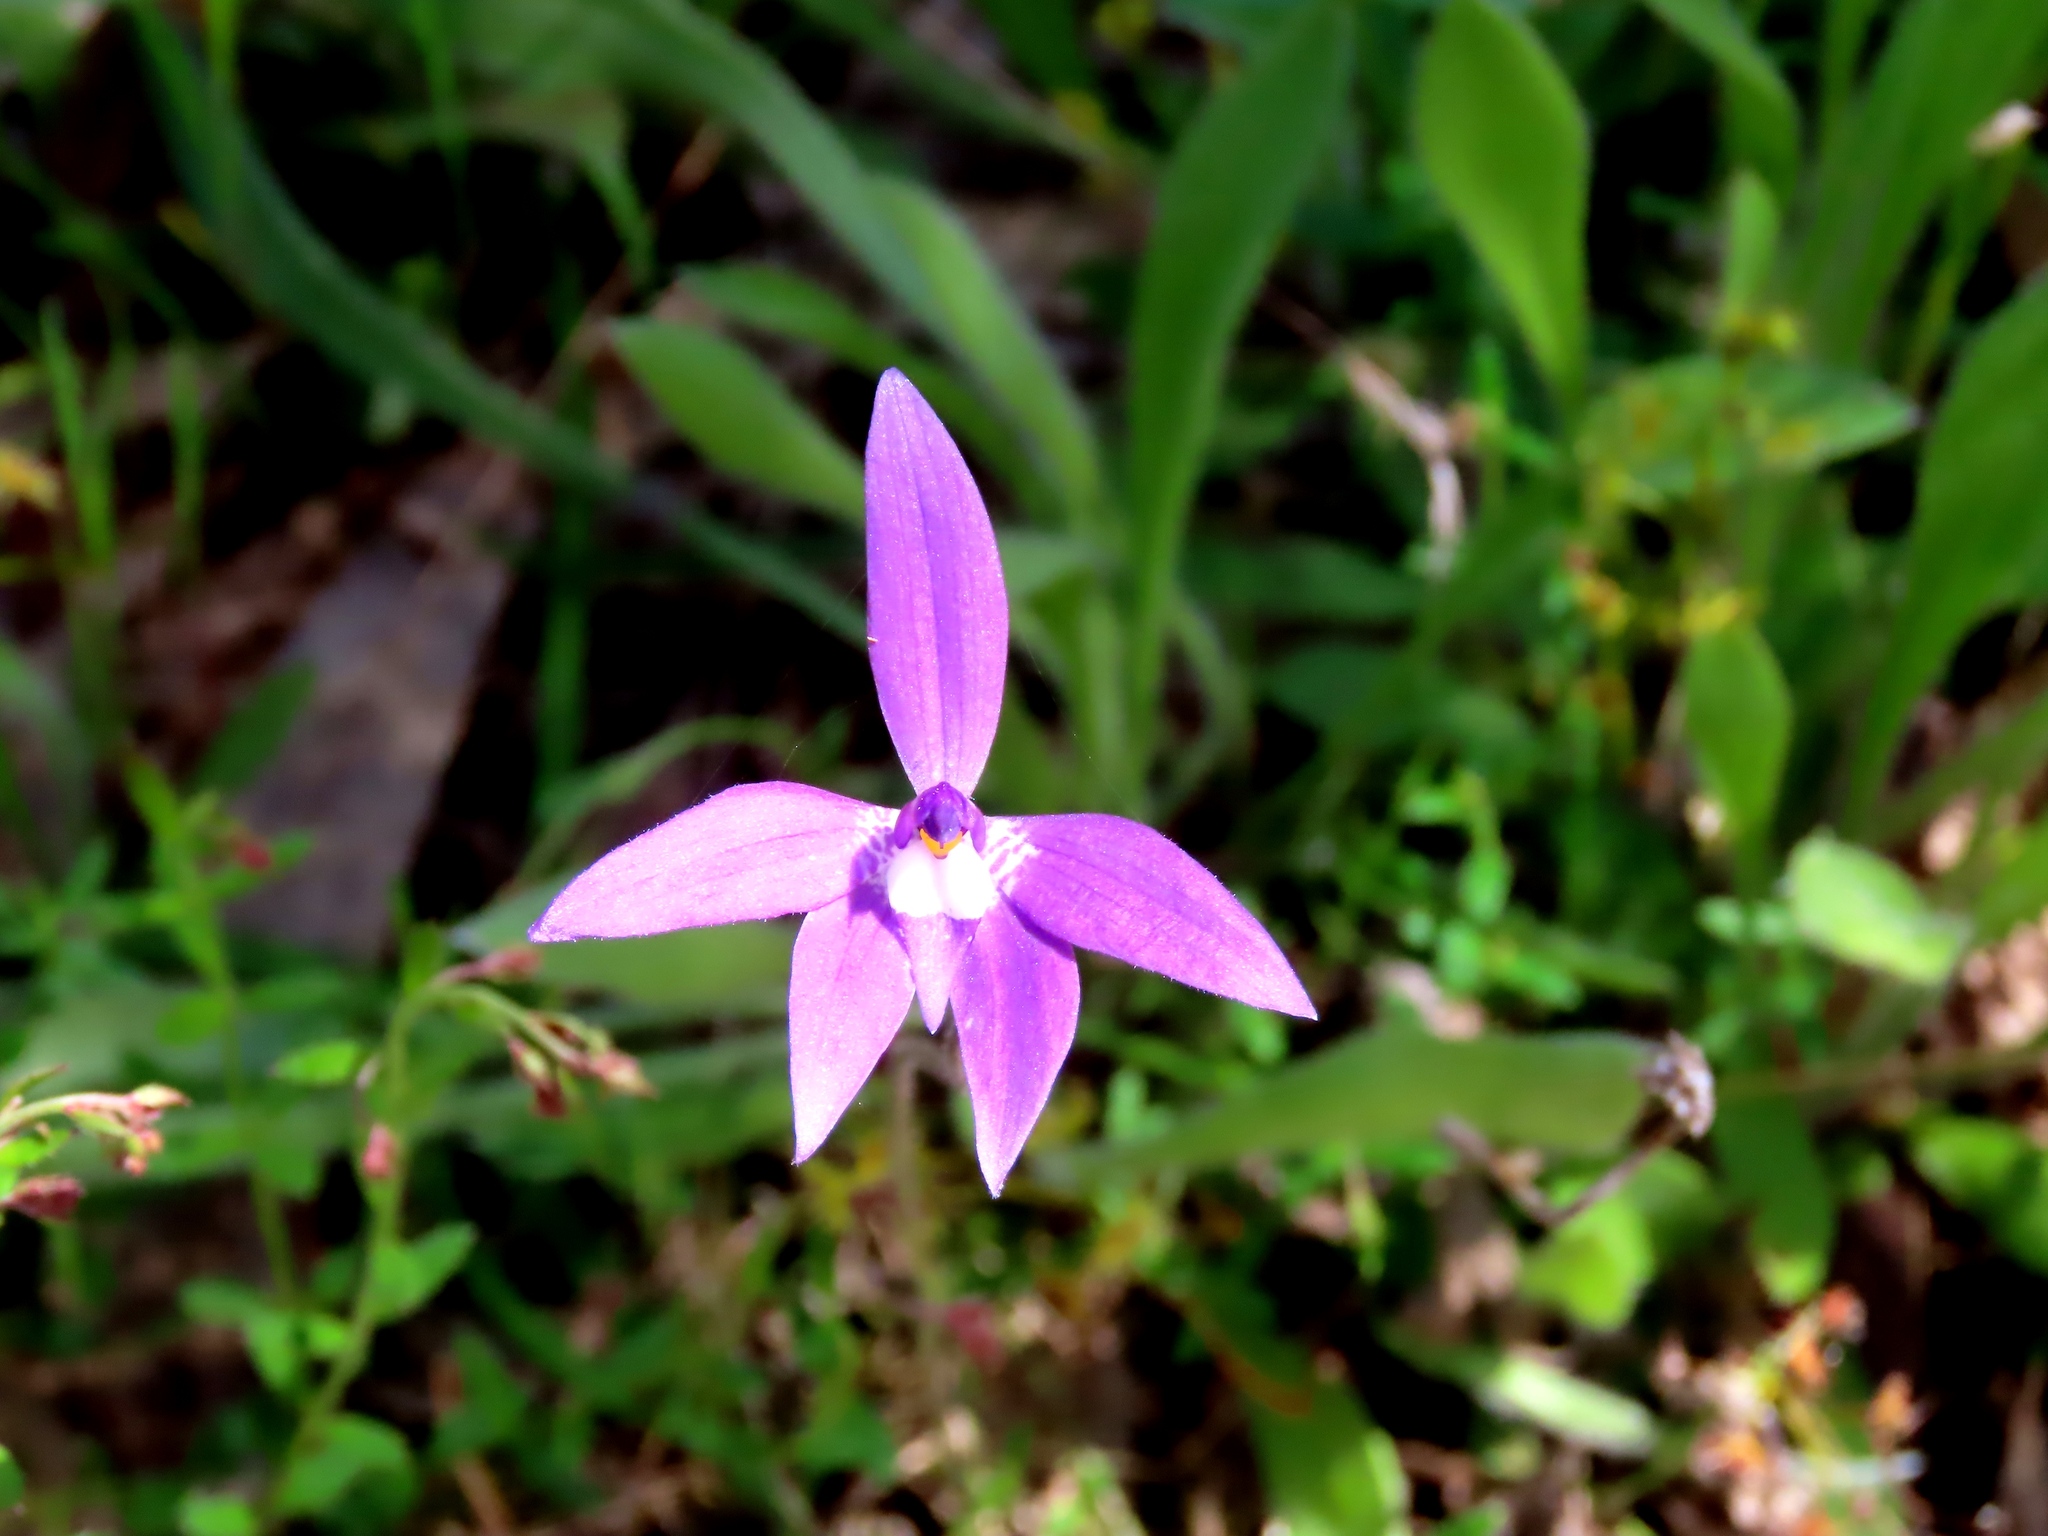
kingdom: Plantae
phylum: Tracheophyta
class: Liliopsida
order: Asparagales
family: Orchidaceae
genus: Caladenia
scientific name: Caladenia major
